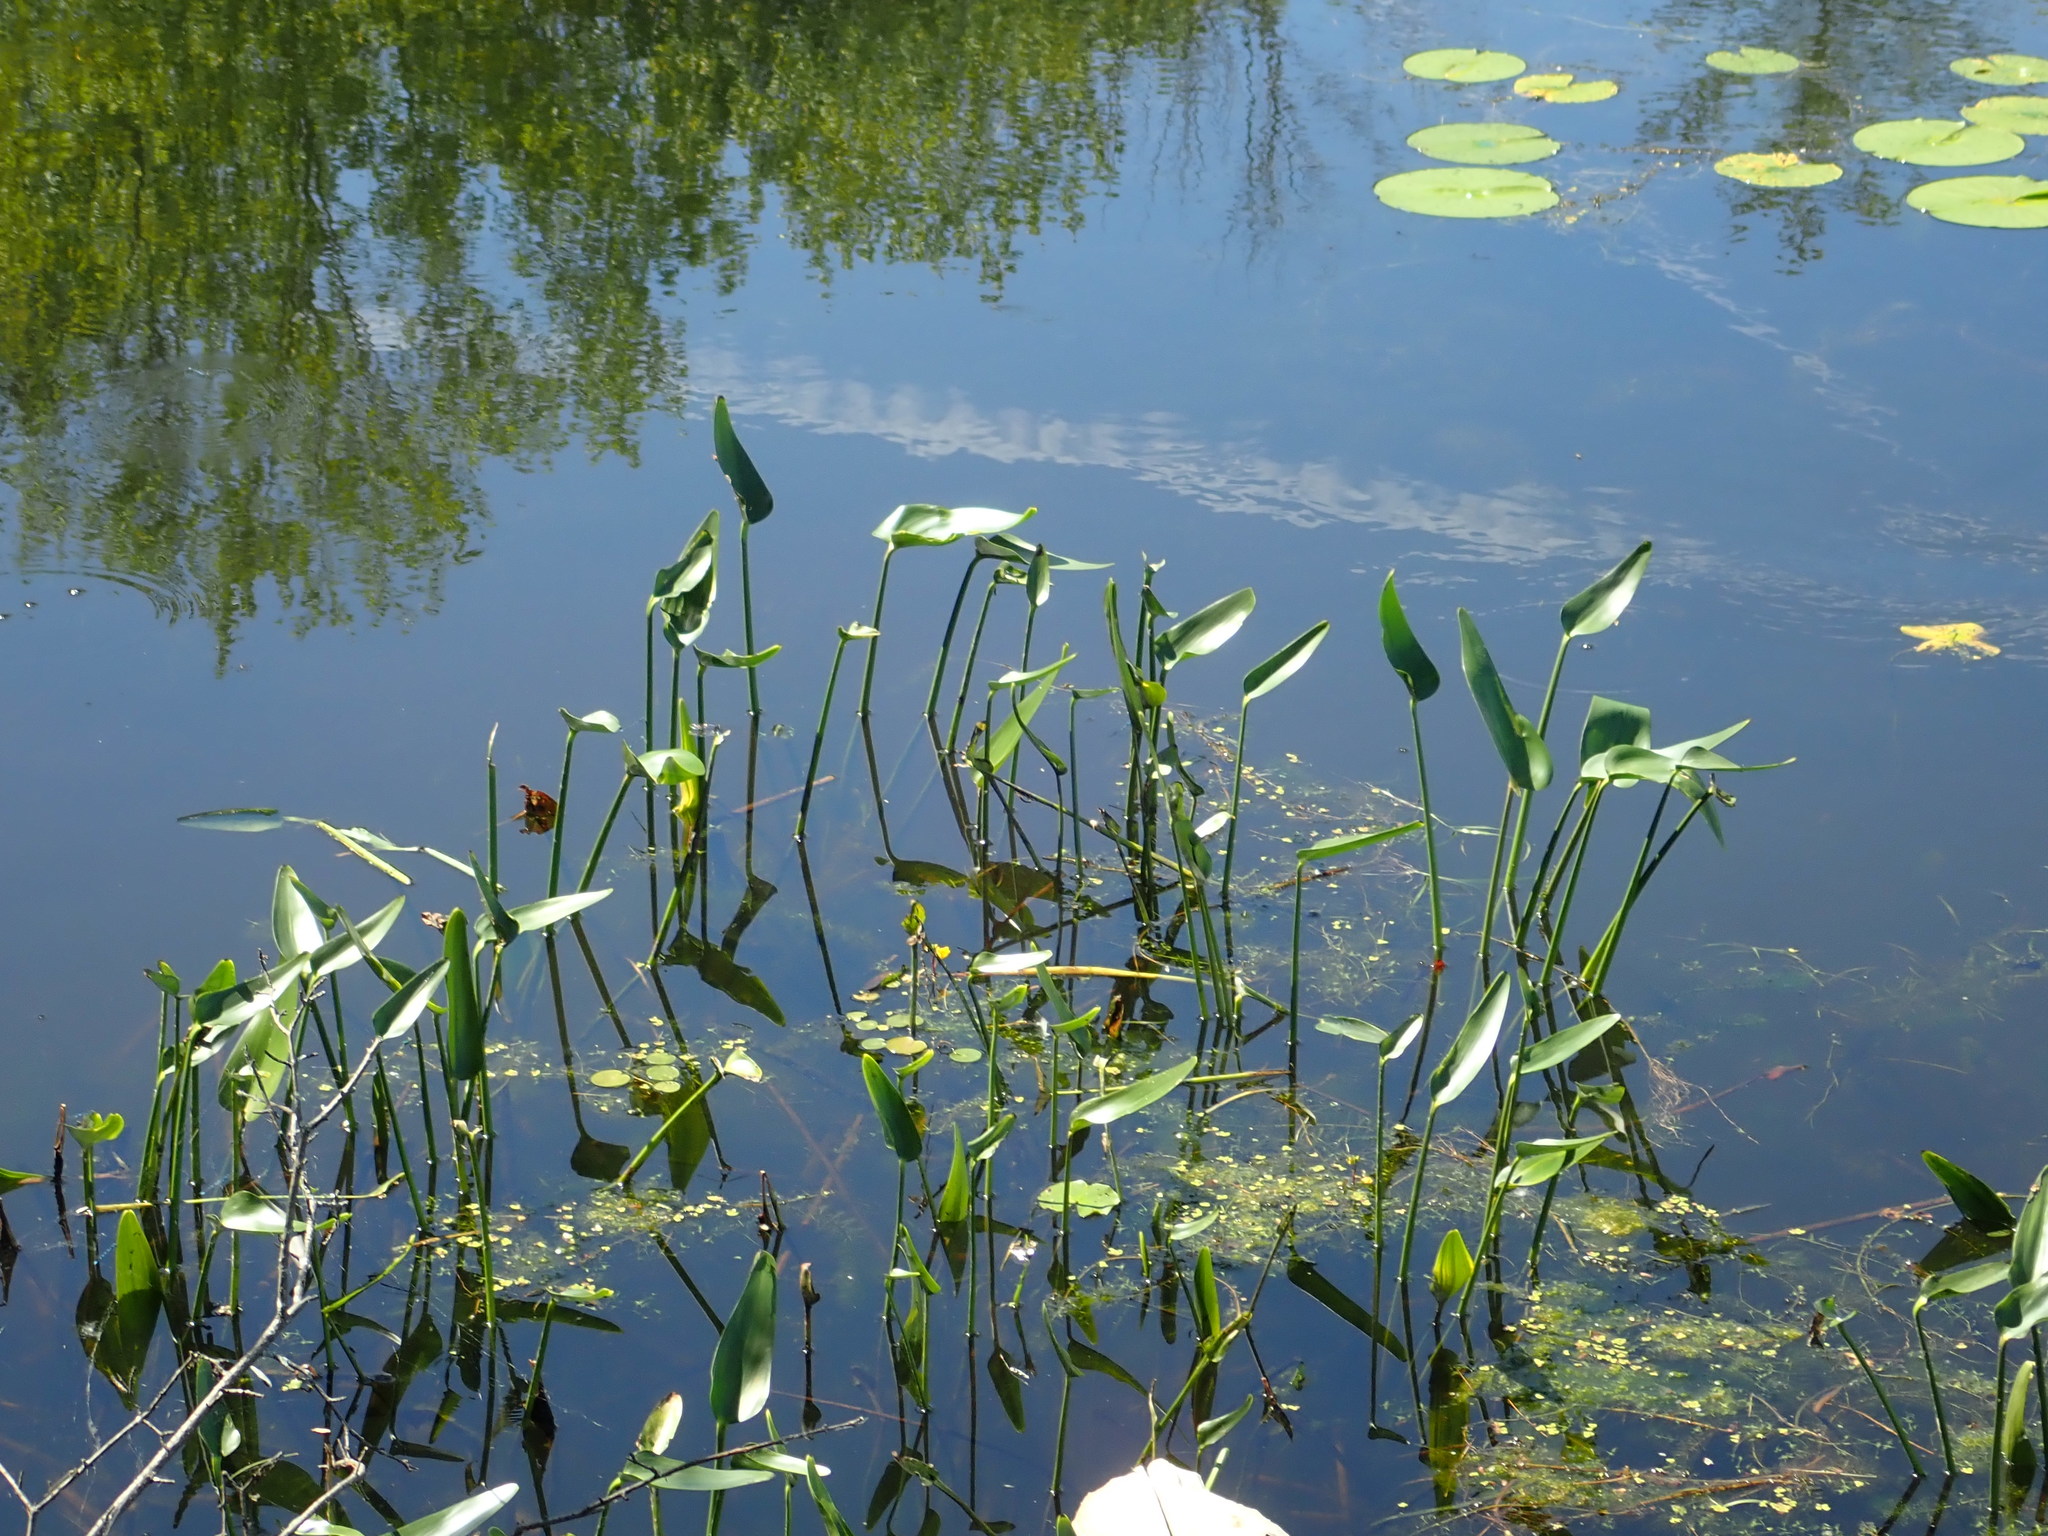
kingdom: Plantae
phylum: Tracheophyta
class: Liliopsida
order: Commelinales
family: Pontederiaceae
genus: Pontederia
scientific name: Pontederia cordata
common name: Pickerelweed
